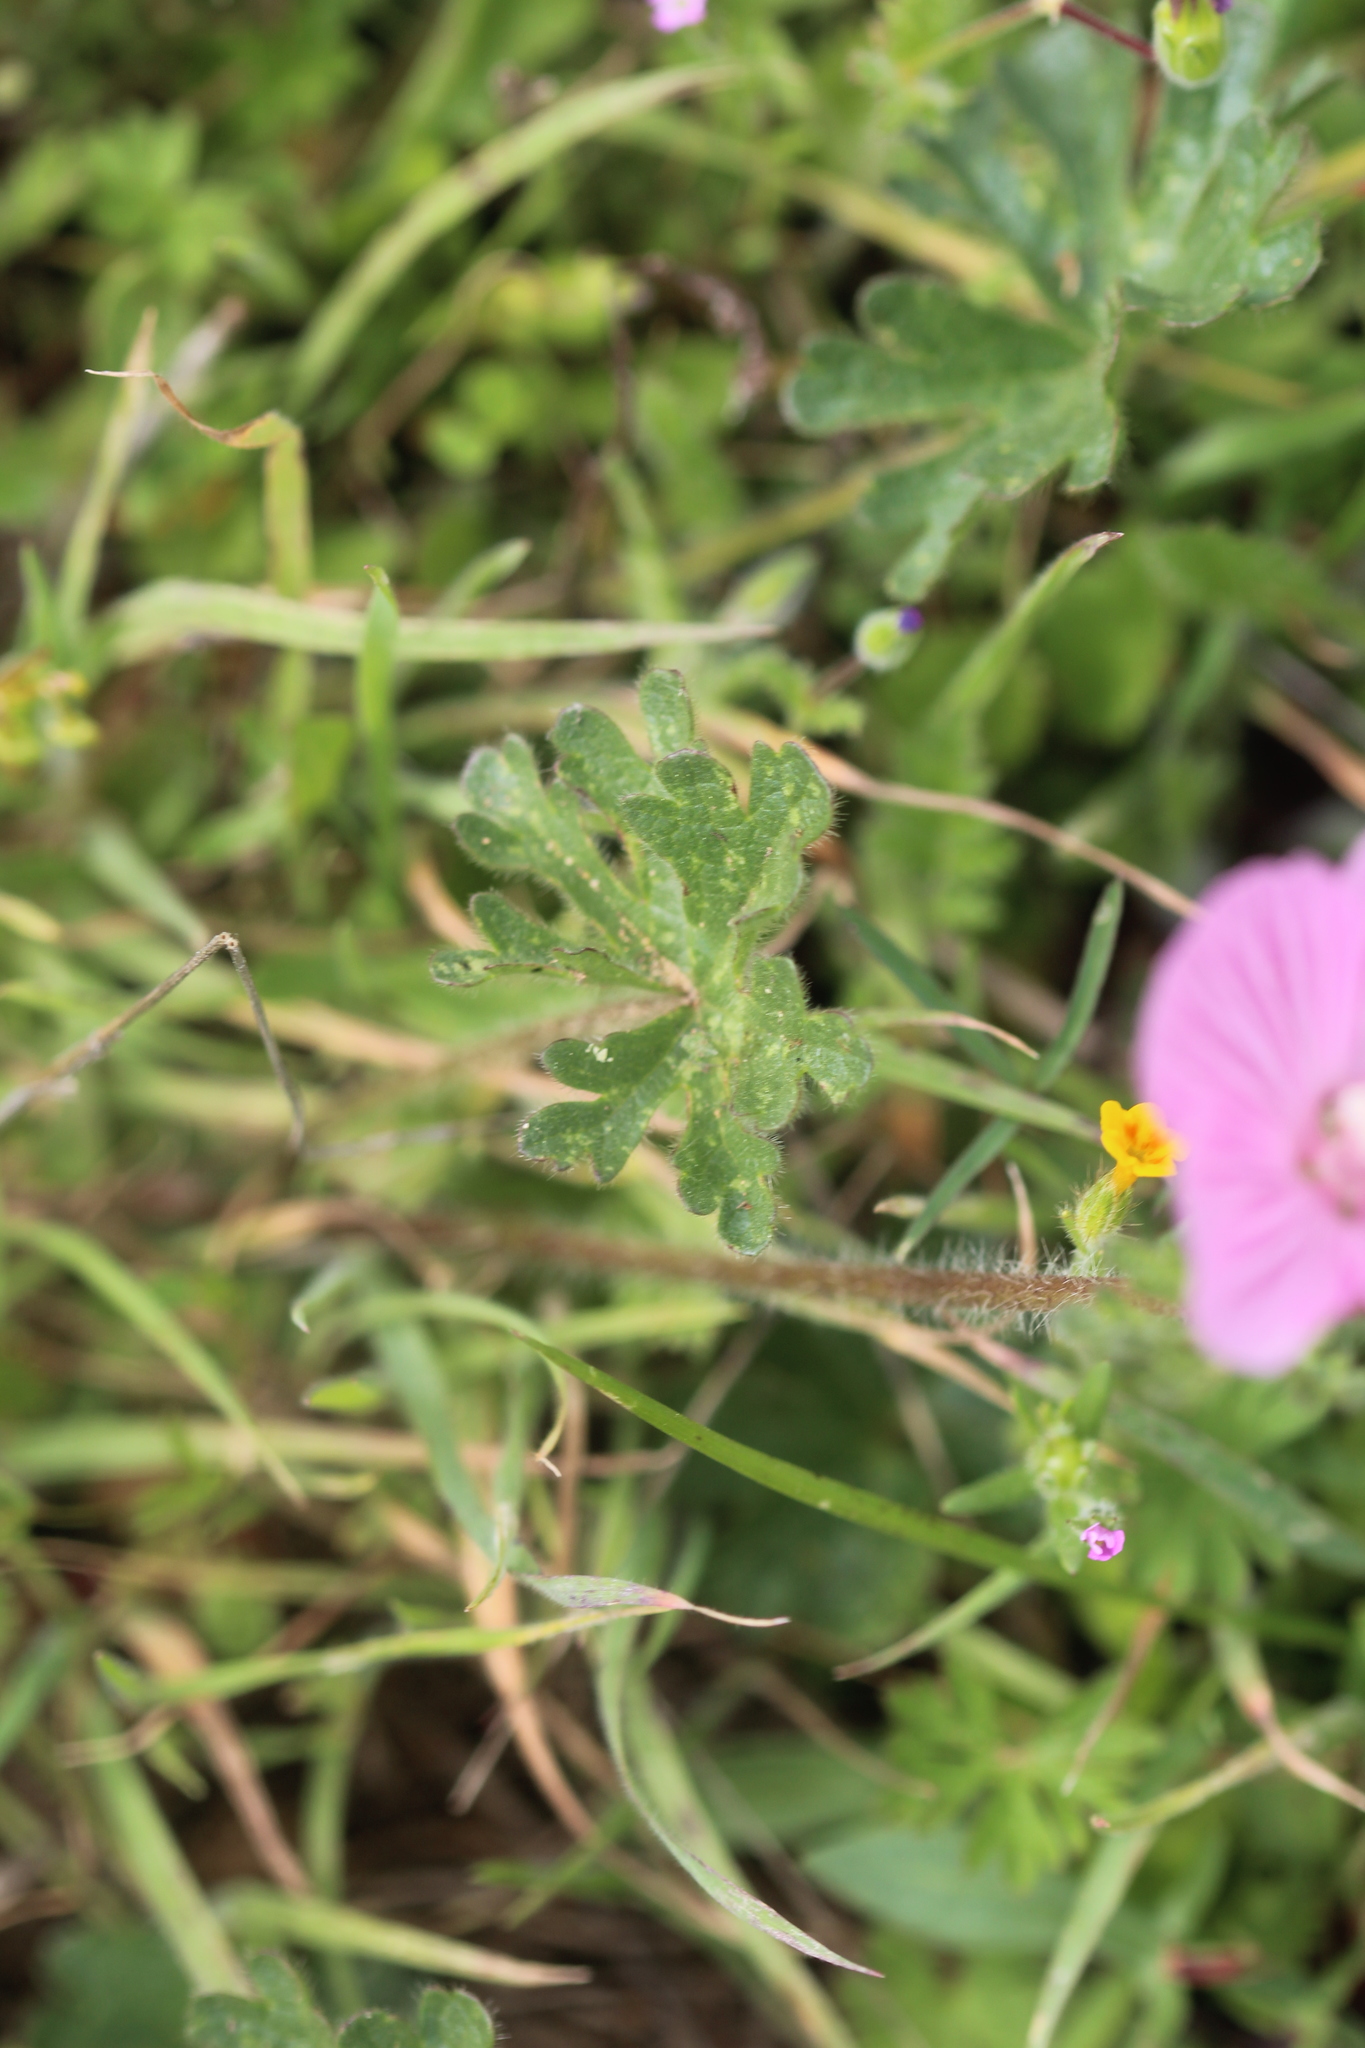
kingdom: Plantae
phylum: Tracheophyta
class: Magnoliopsida
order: Malvales
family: Malvaceae
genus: Sidalcea
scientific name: Sidalcea malviflora
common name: Greek mallow
